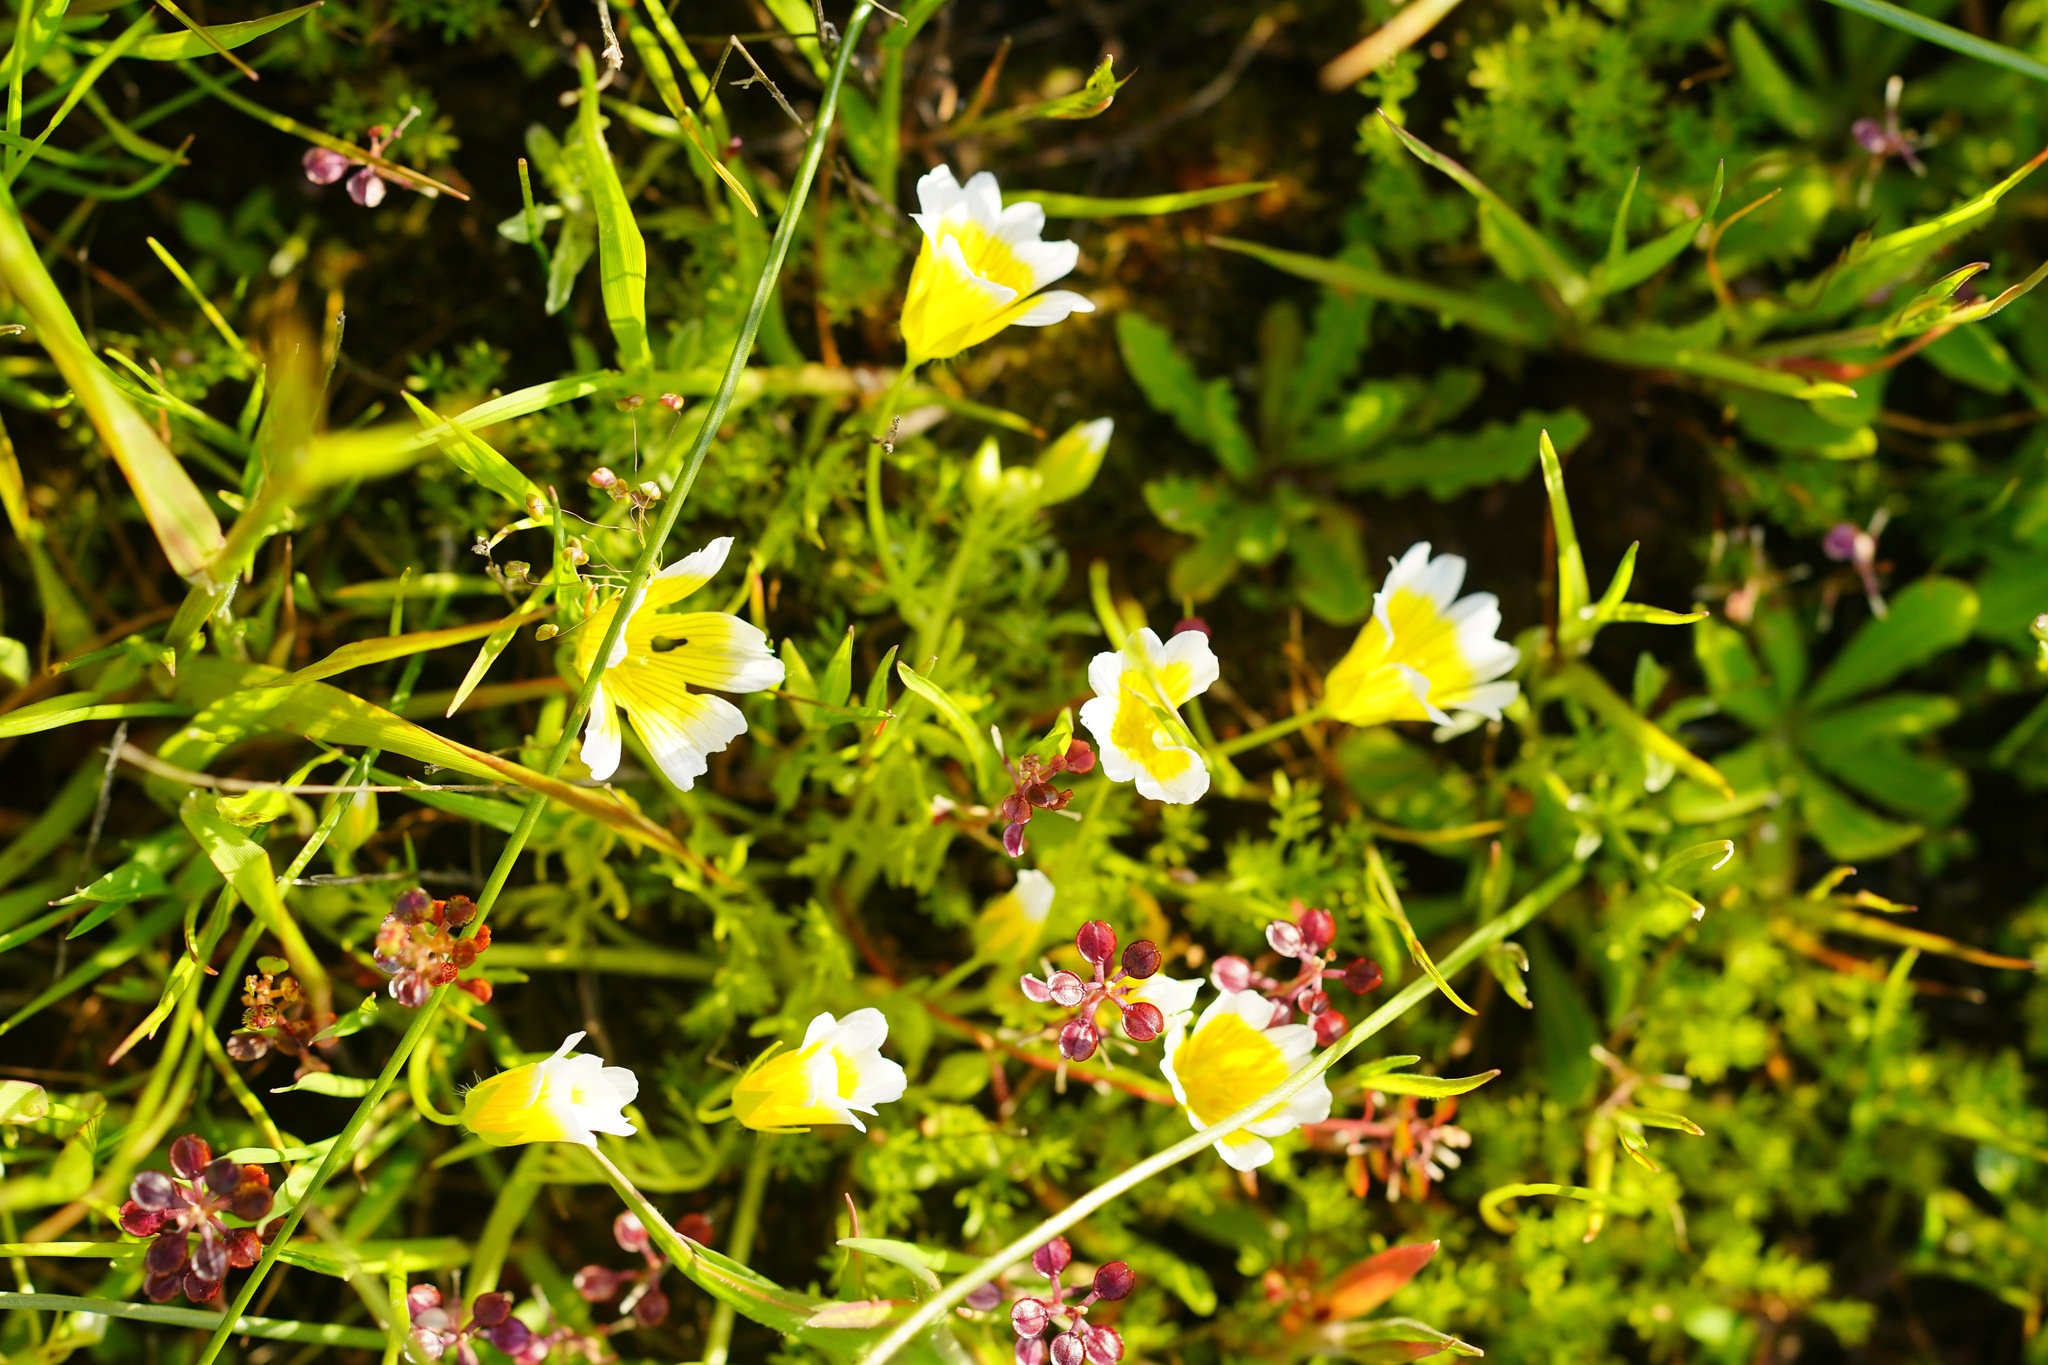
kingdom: Plantae
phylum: Tracheophyta
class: Magnoliopsida
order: Brassicales
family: Limnanthaceae
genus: Limnanthes
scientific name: Limnanthes douglasii
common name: Meadow-foam
